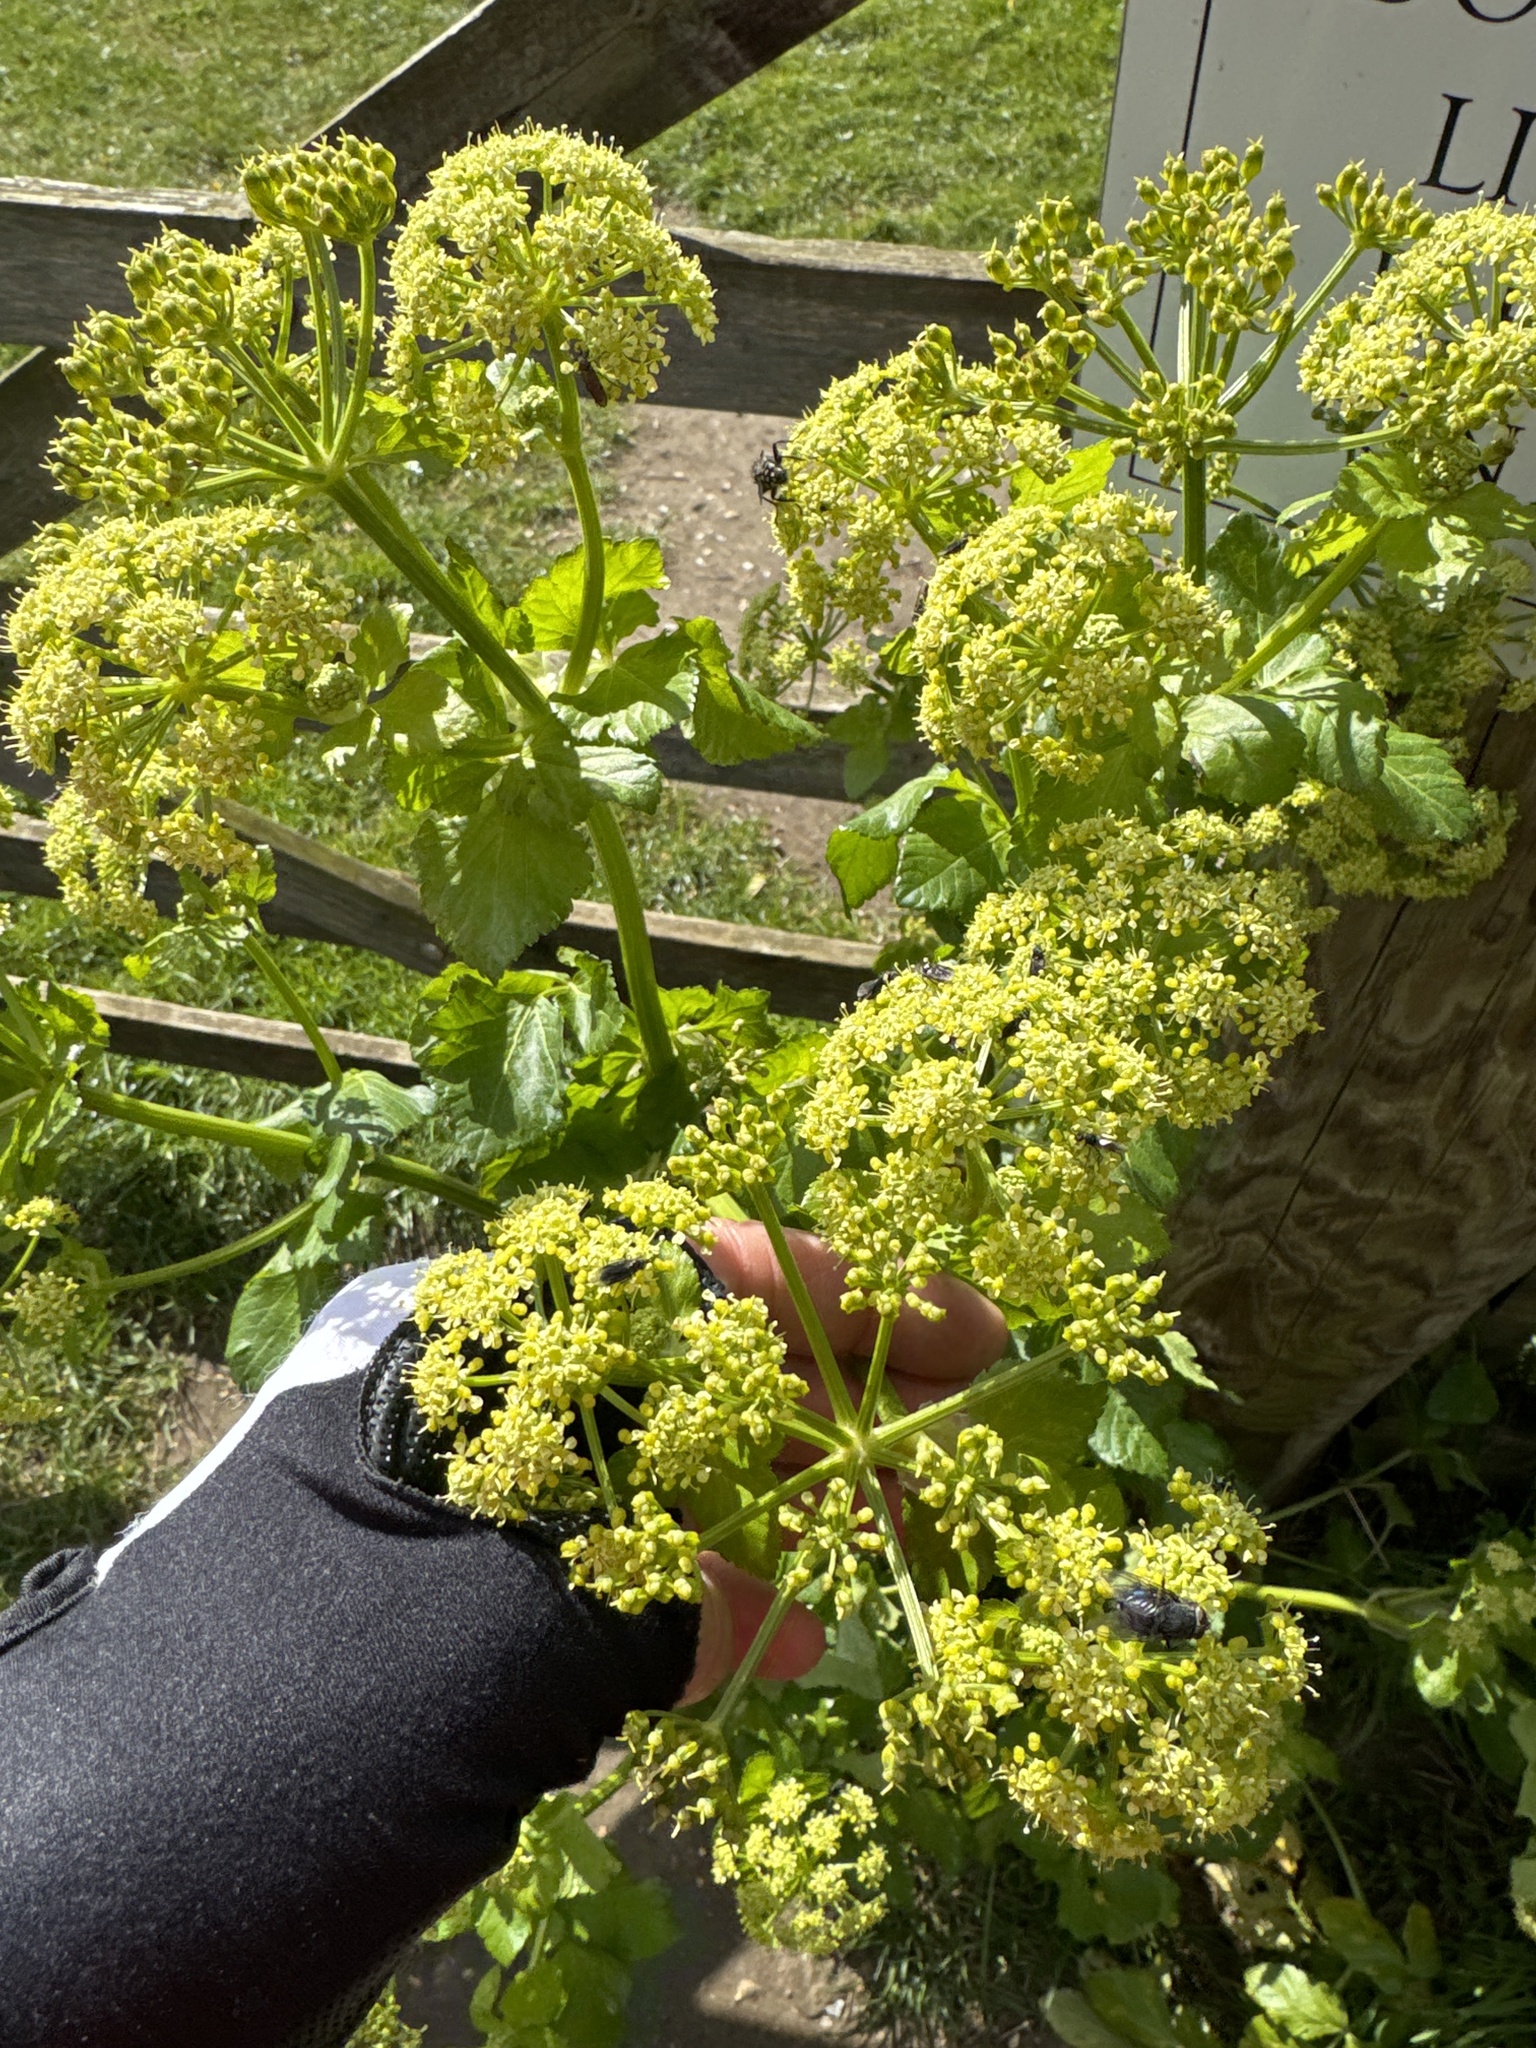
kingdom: Plantae
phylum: Tracheophyta
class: Magnoliopsida
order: Apiales
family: Apiaceae
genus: Smyrnium
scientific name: Smyrnium olusatrum
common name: Alexanders
